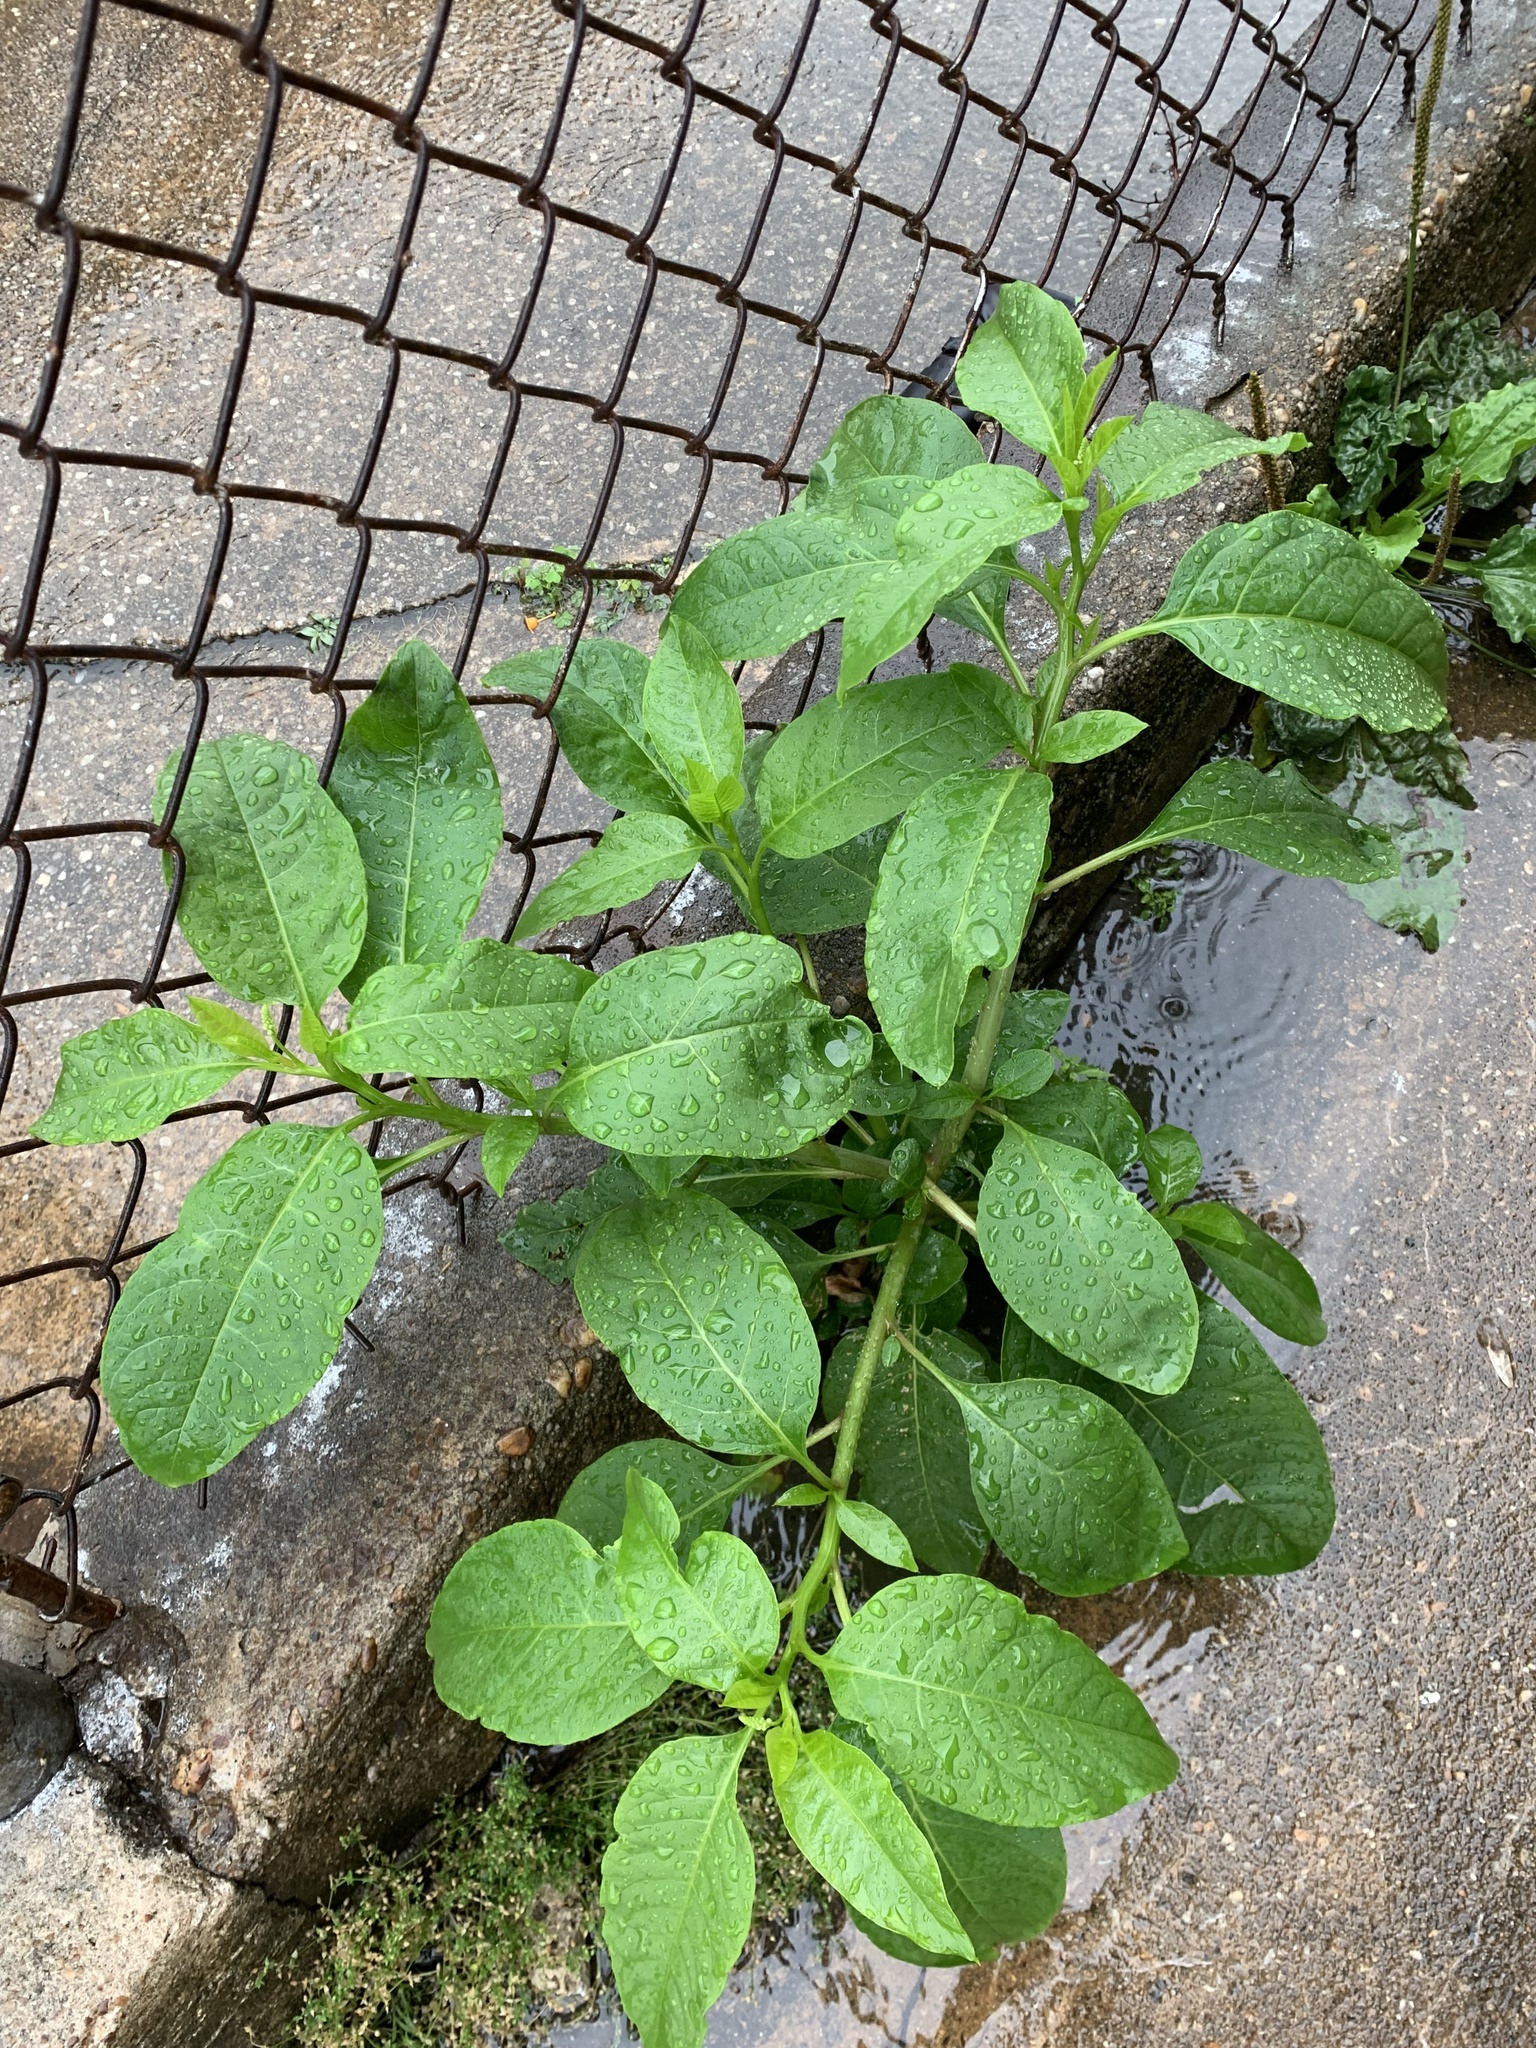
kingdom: Plantae
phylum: Tracheophyta
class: Magnoliopsida
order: Caryophyllales
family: Phytolaccaceae
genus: Phytolacca
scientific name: Phytolacca americana
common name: American pokeweed
